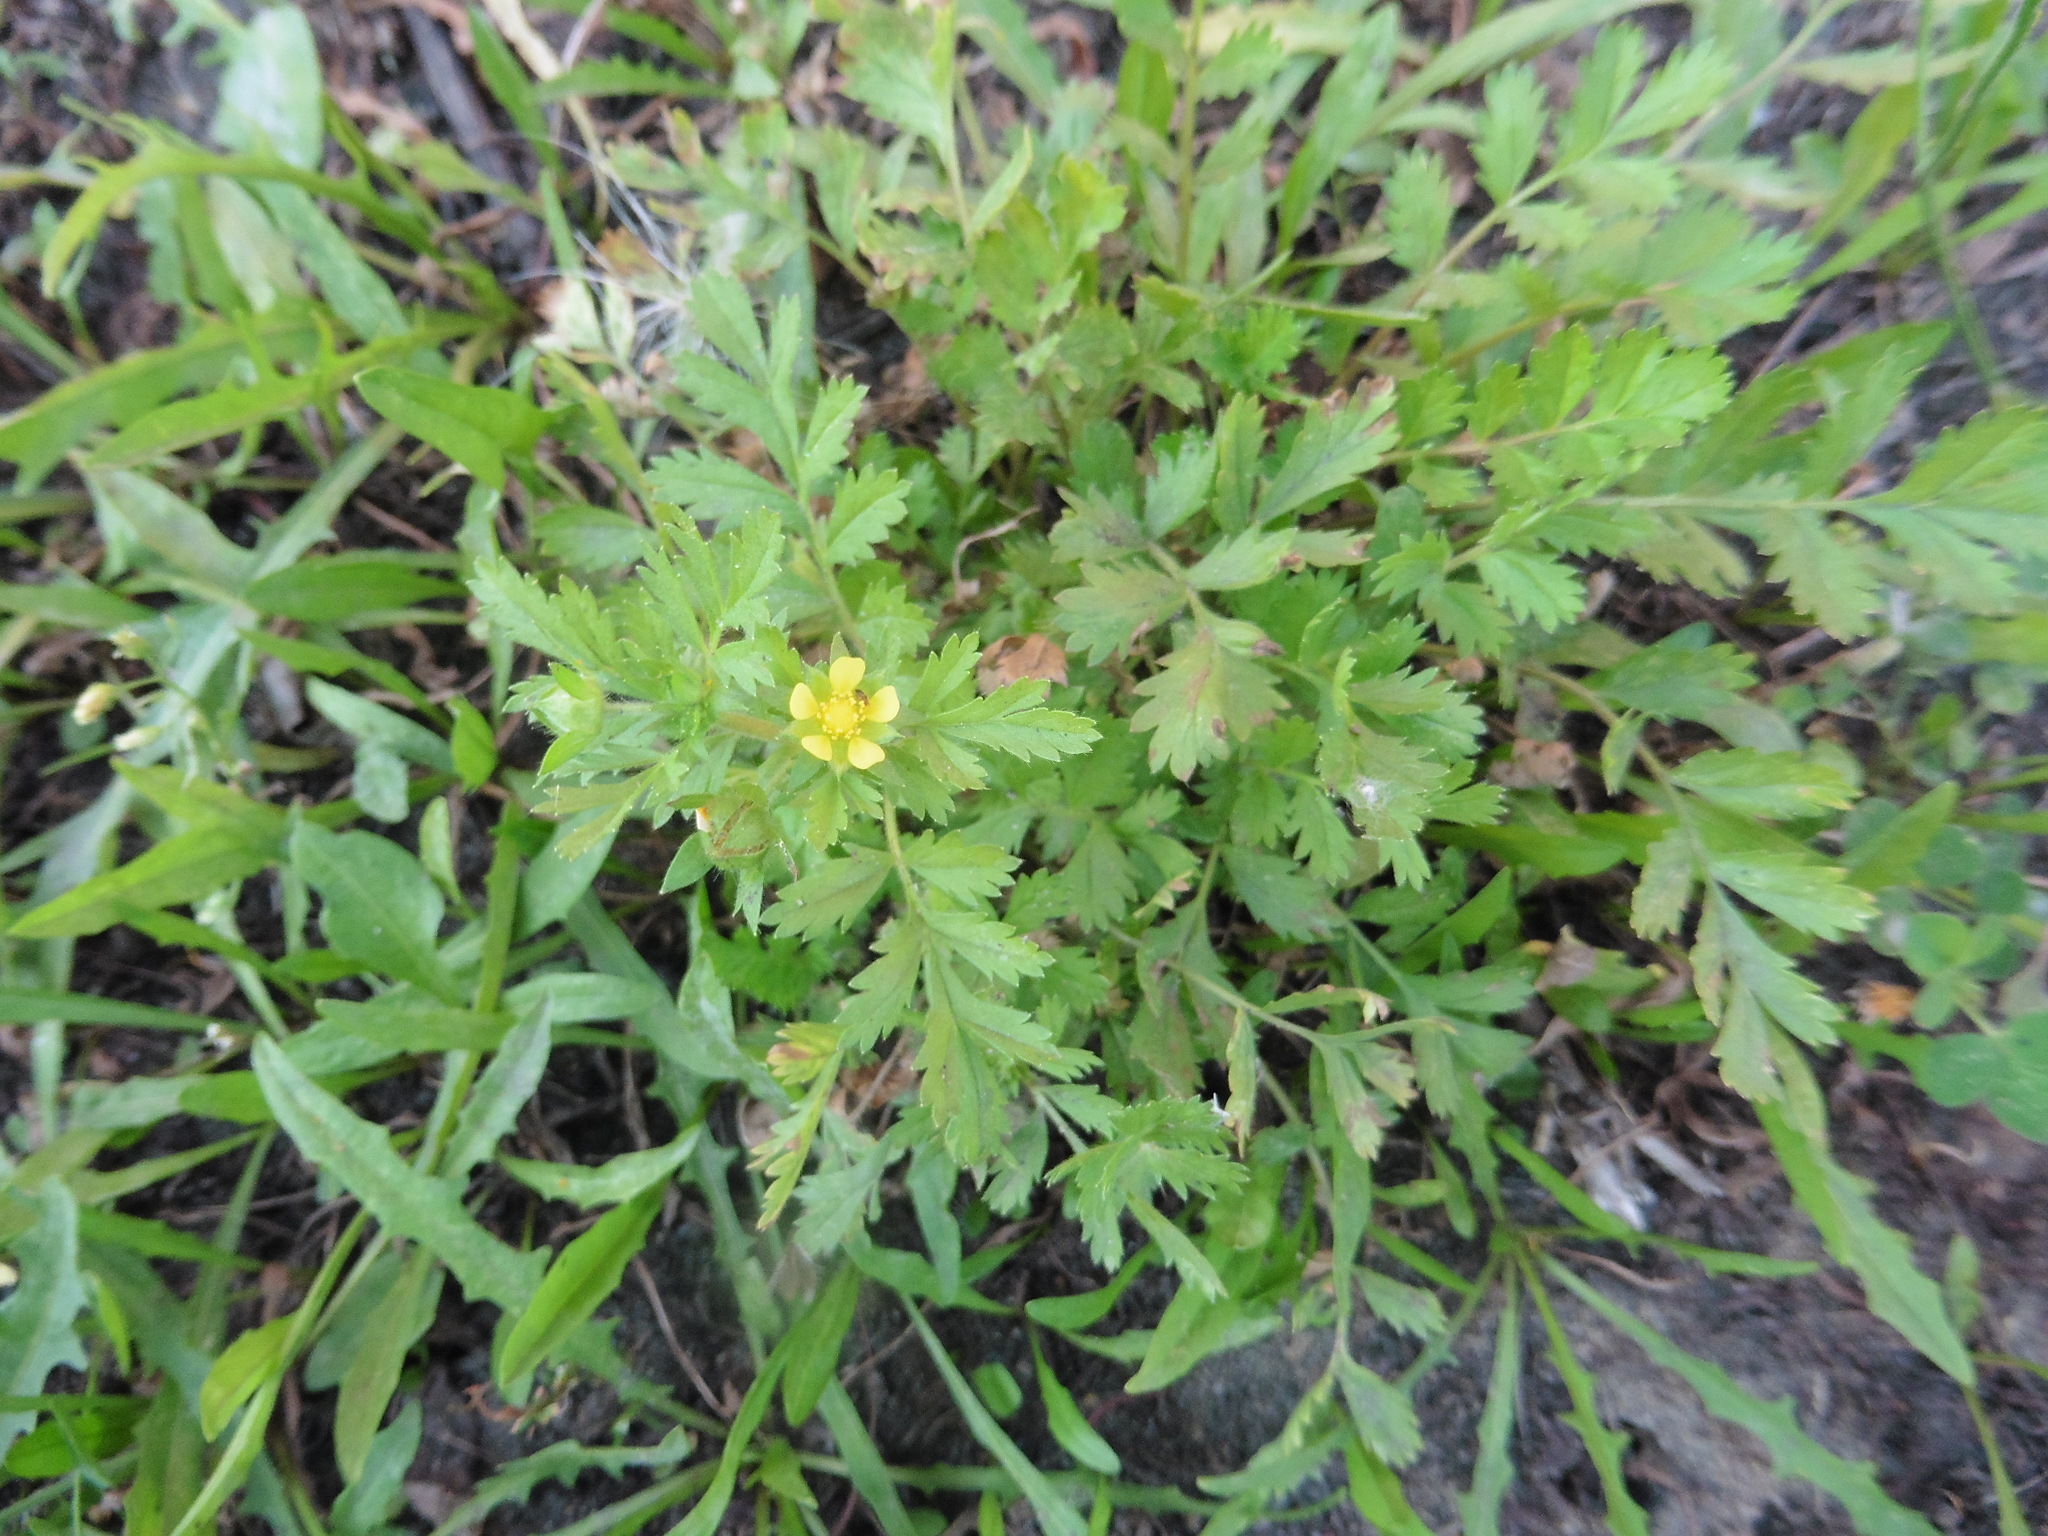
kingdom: Plantae
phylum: Tracheophyta
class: Magnoliopsida
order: Rosales
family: Rosaceae
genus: Potentilla
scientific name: Potentilla supina
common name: Prostrate cinquefoil
